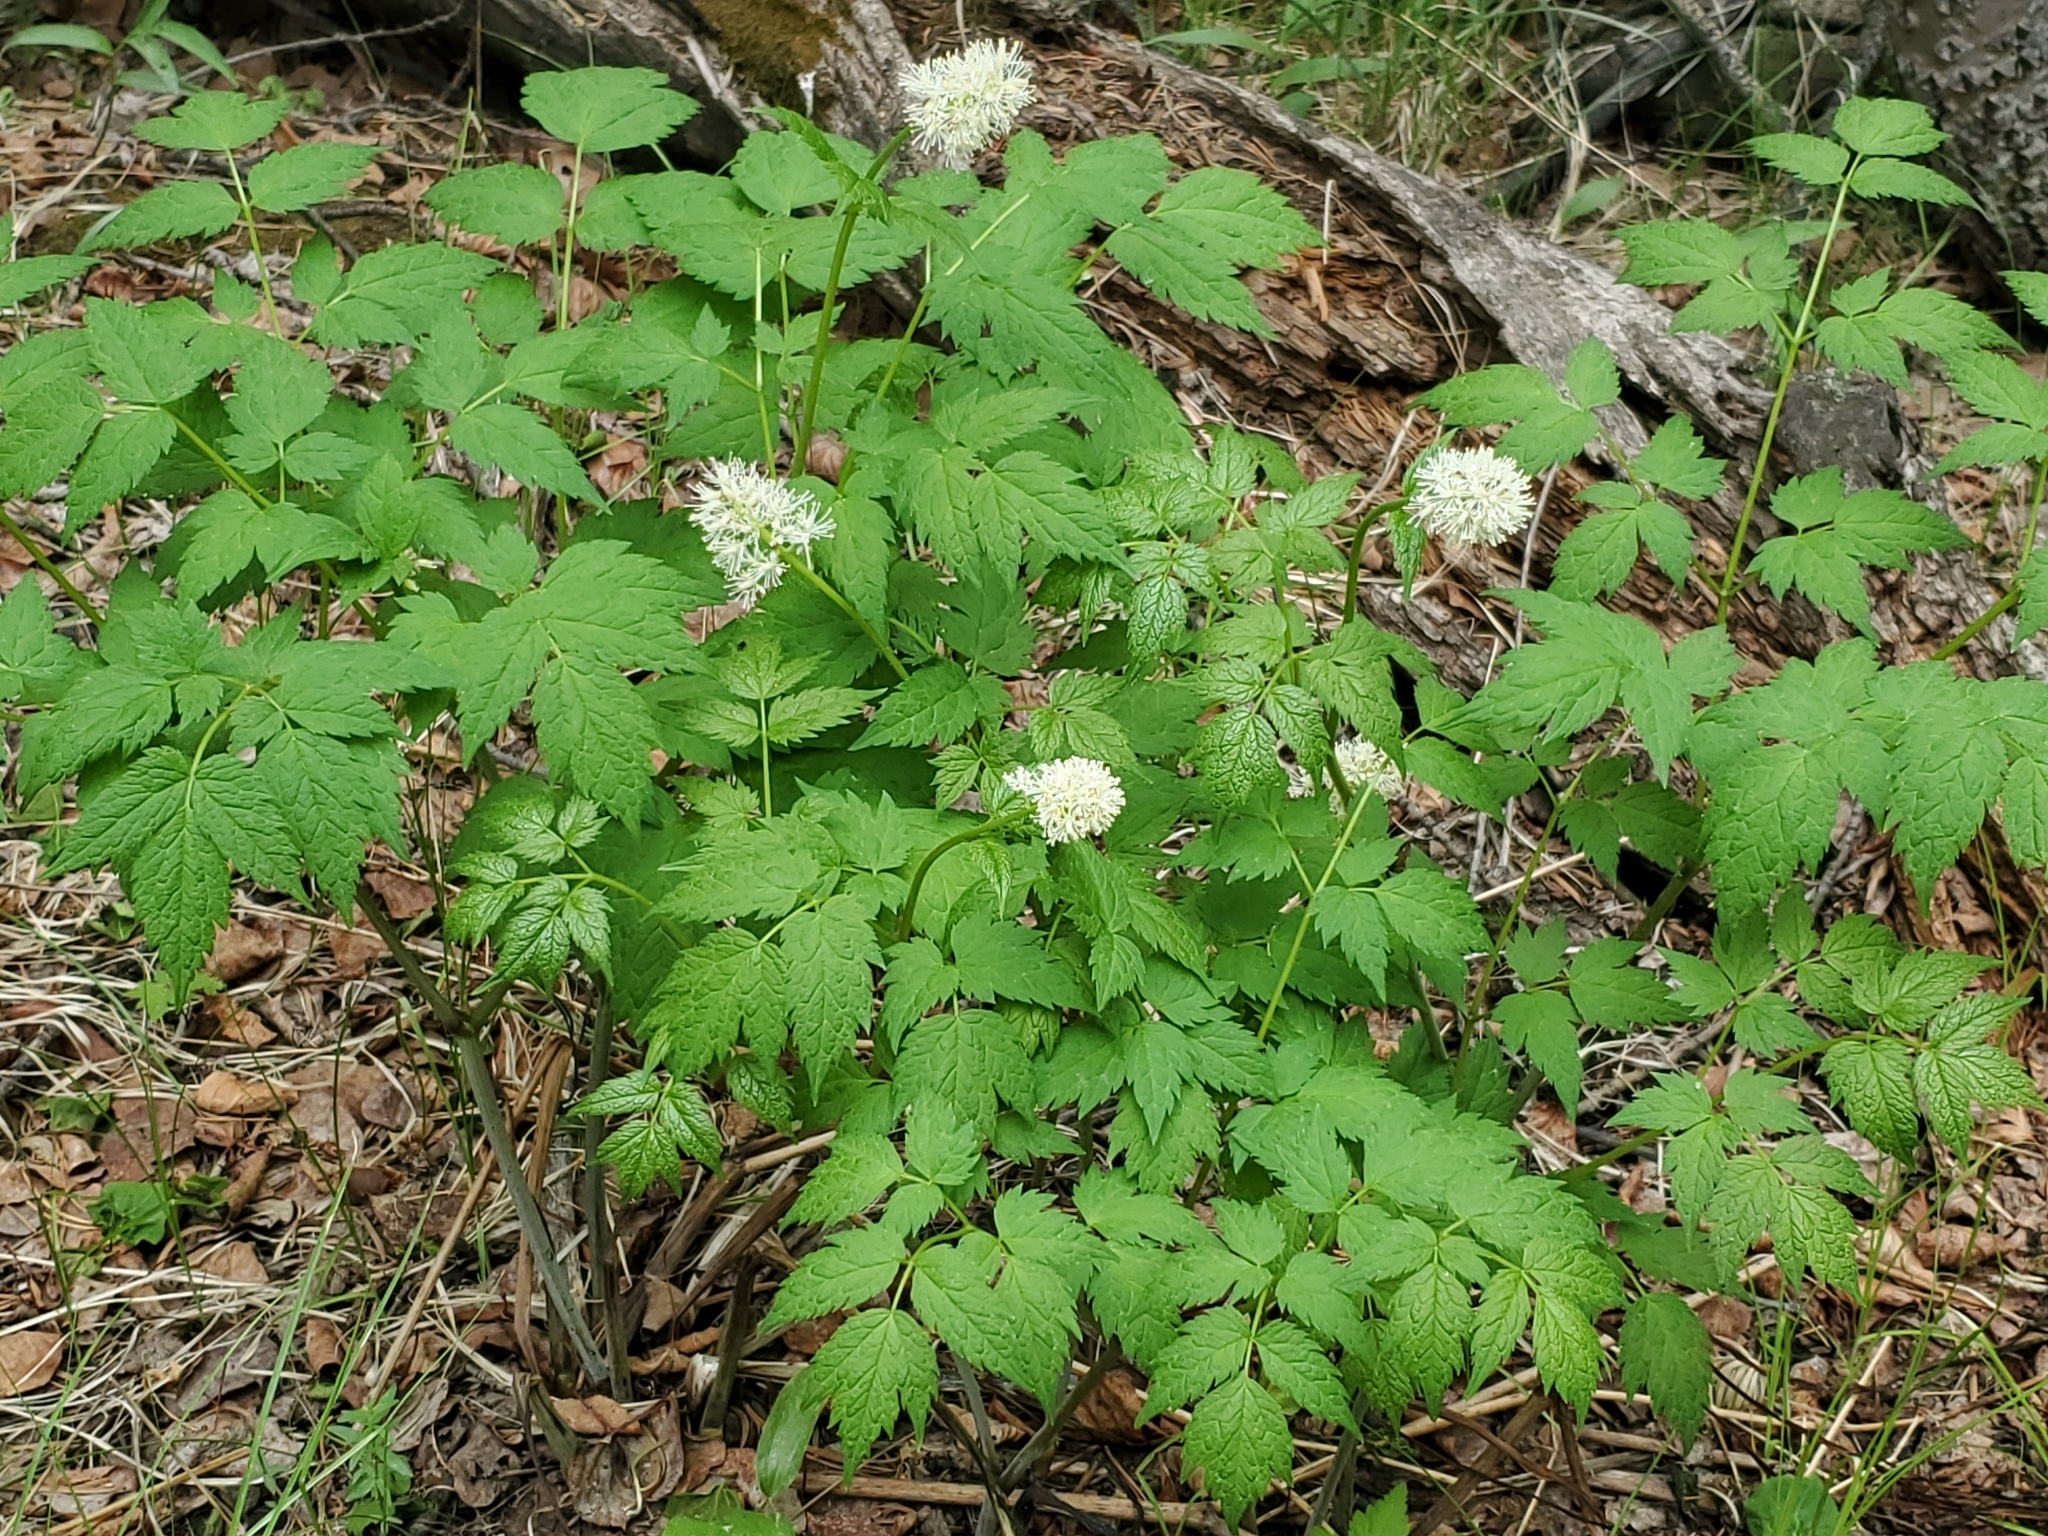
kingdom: Plantae
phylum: Tracheophyta
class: Magnoliopsida
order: Ranunculales
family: Ranunculaceae
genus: Actaea
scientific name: Actaea rubra
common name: Red baneberry
